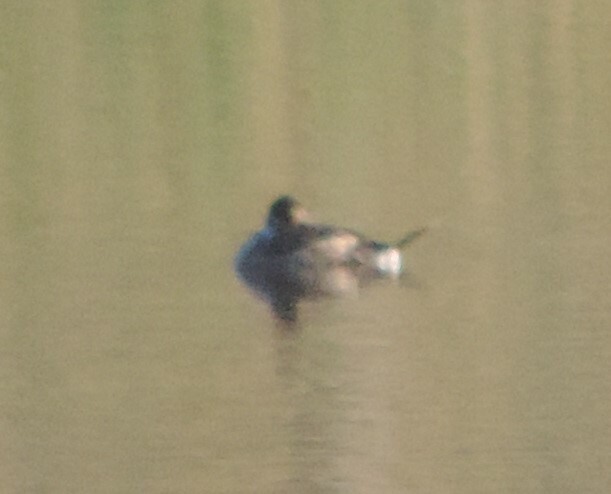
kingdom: Animalia
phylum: Chordata
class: Aves
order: Anseriformes
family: Anatidae
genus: Oxyura
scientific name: Oxyura jamaicensis
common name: Ruddy duck
